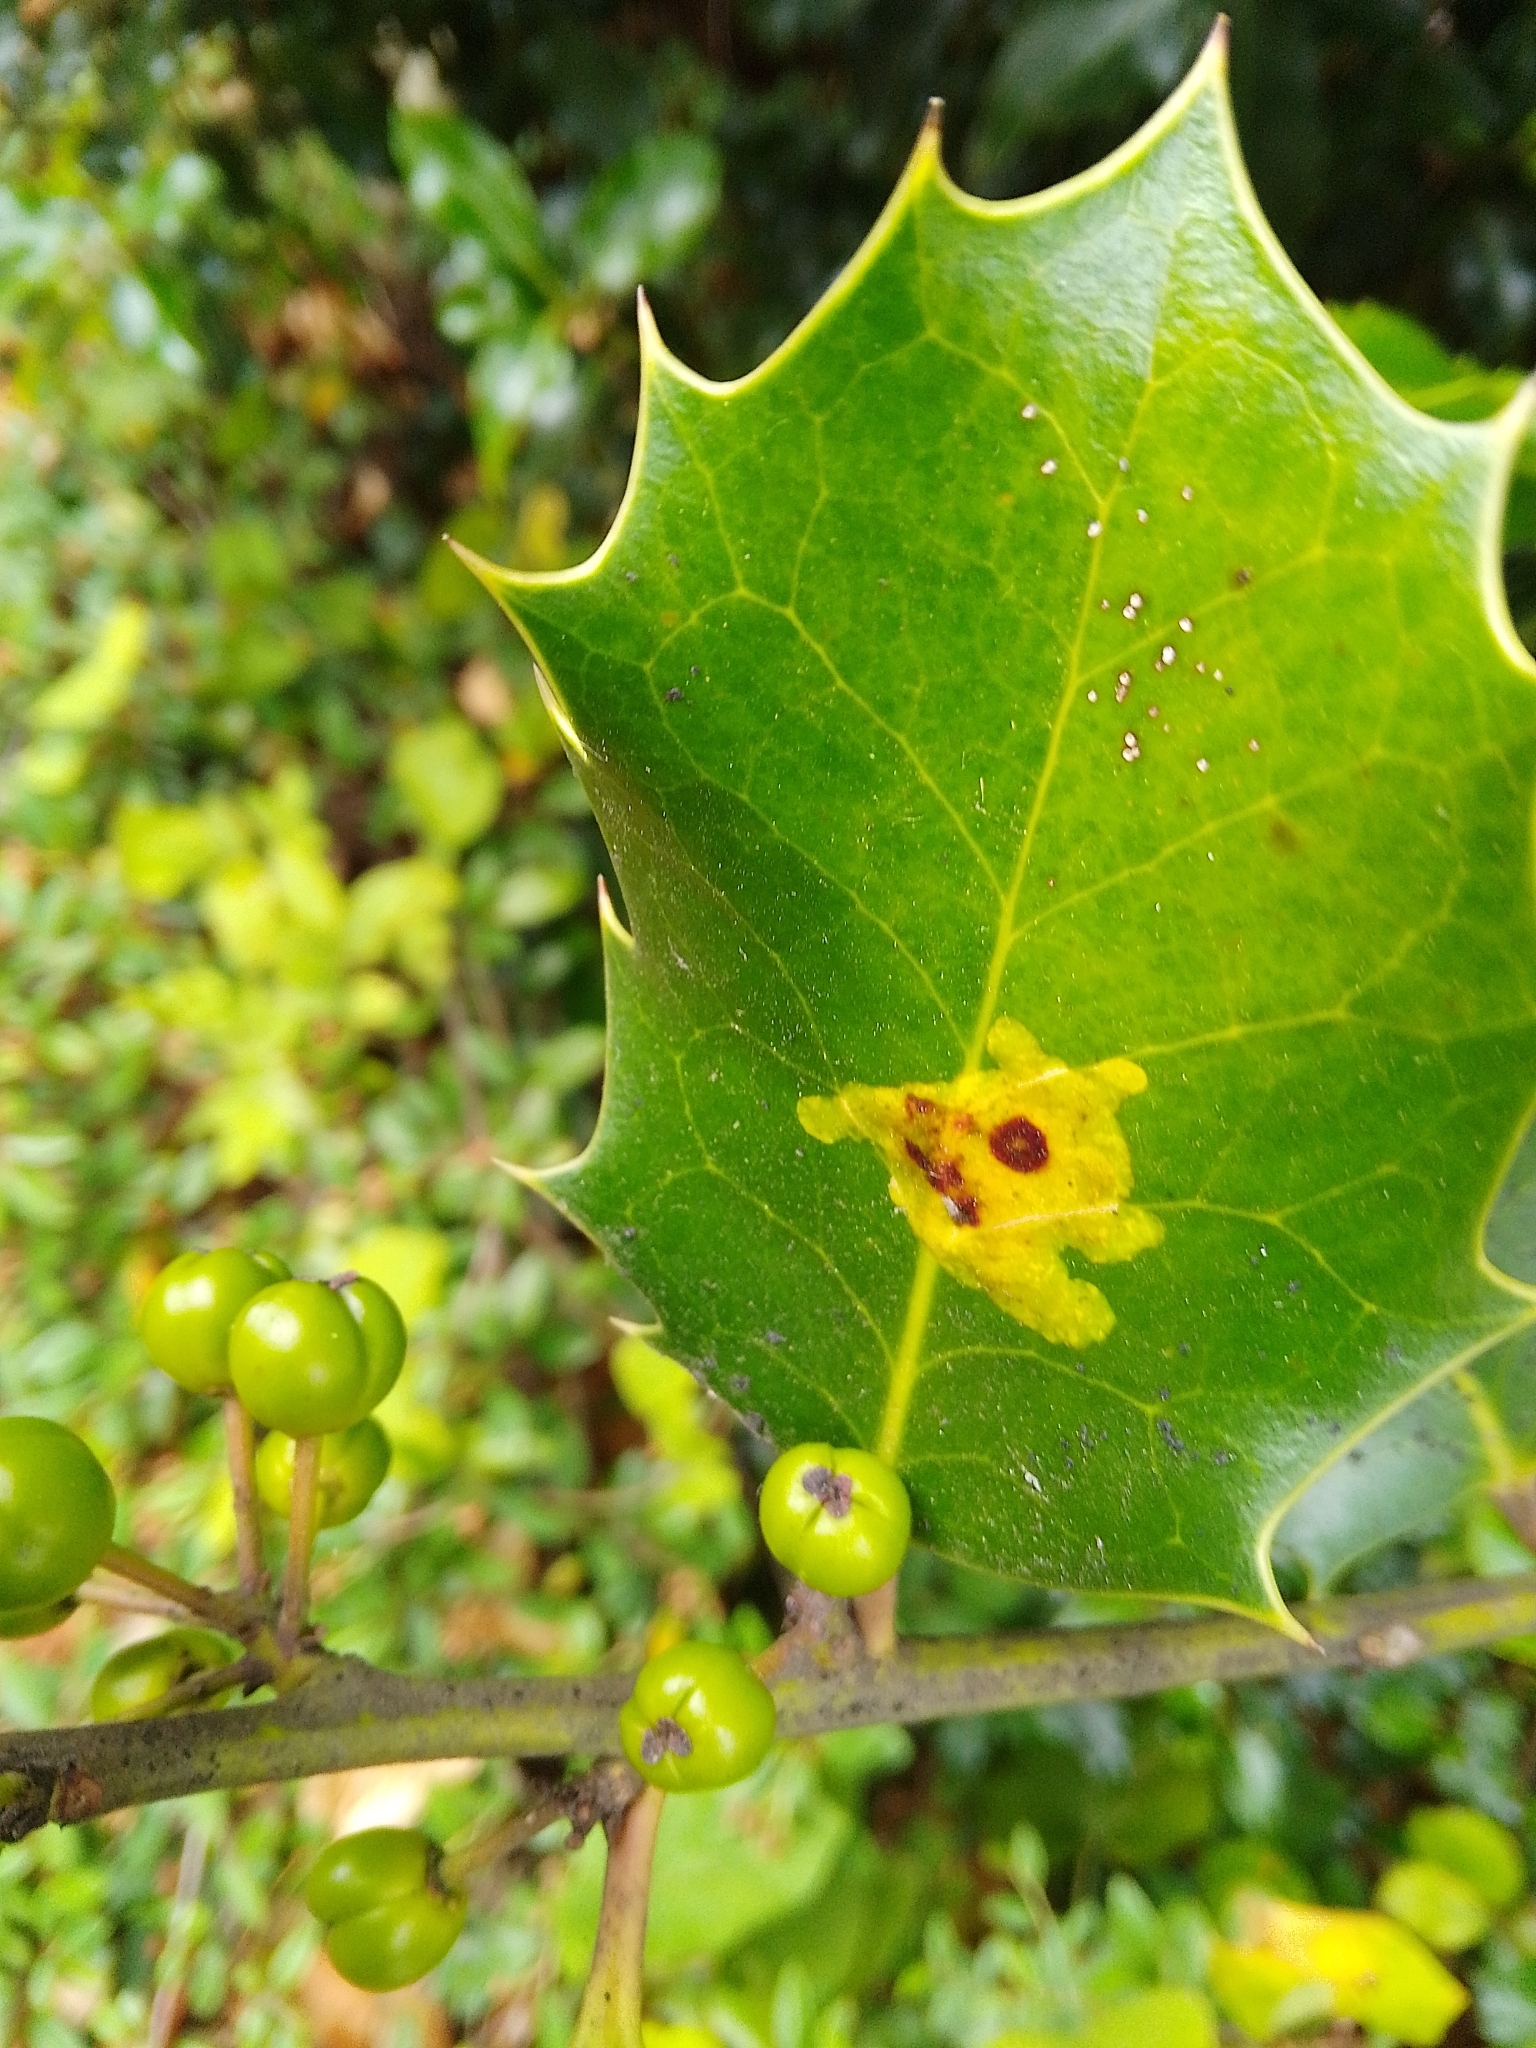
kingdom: Animalia
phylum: Arthropoda
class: Insecta
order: Diptera
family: Agromyzidae
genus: Phytomyza
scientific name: Phytomyza ilicis
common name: Holly leafminer
